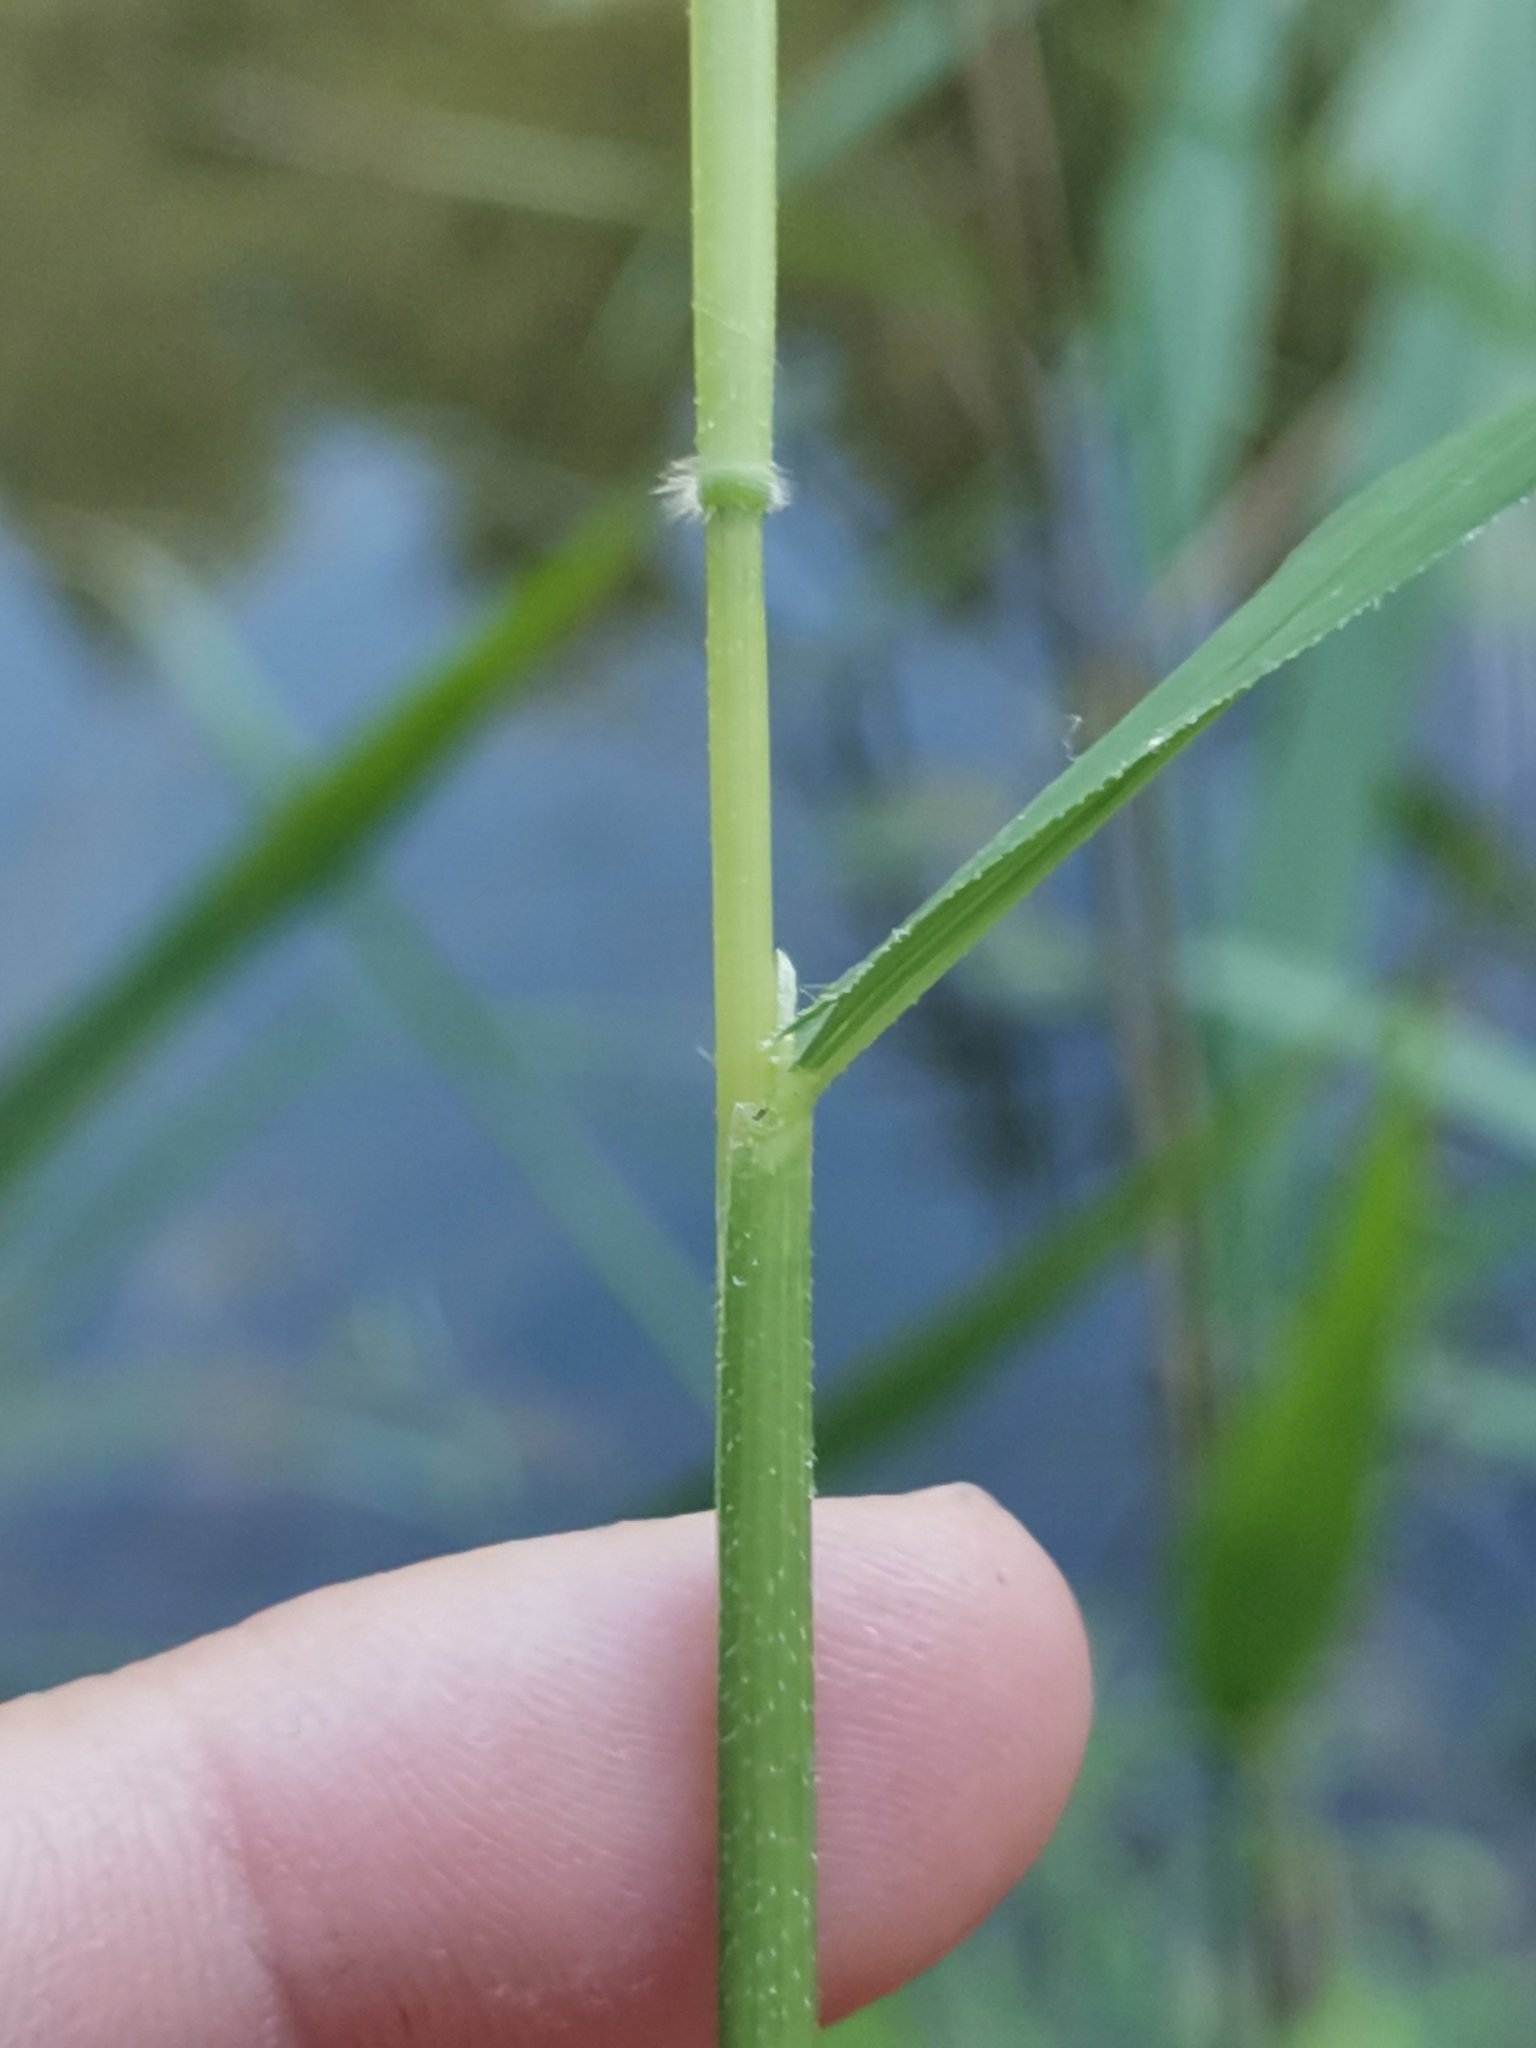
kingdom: Plantae
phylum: Tracheophyta
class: Liliopsida
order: Poales
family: Poaceae
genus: Leersia
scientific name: Leersia oryzoides
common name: Cut-grass
